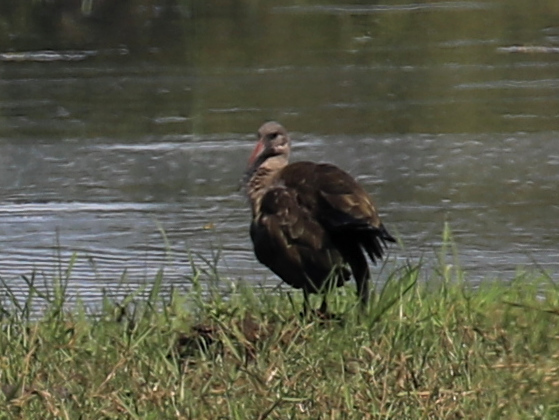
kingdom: Animalia
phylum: Chordata
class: Aves
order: Pelecaniformes
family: Threskiornithidae
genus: Bostrychia
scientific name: Bostrychia hagedash
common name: Hadada ibis
